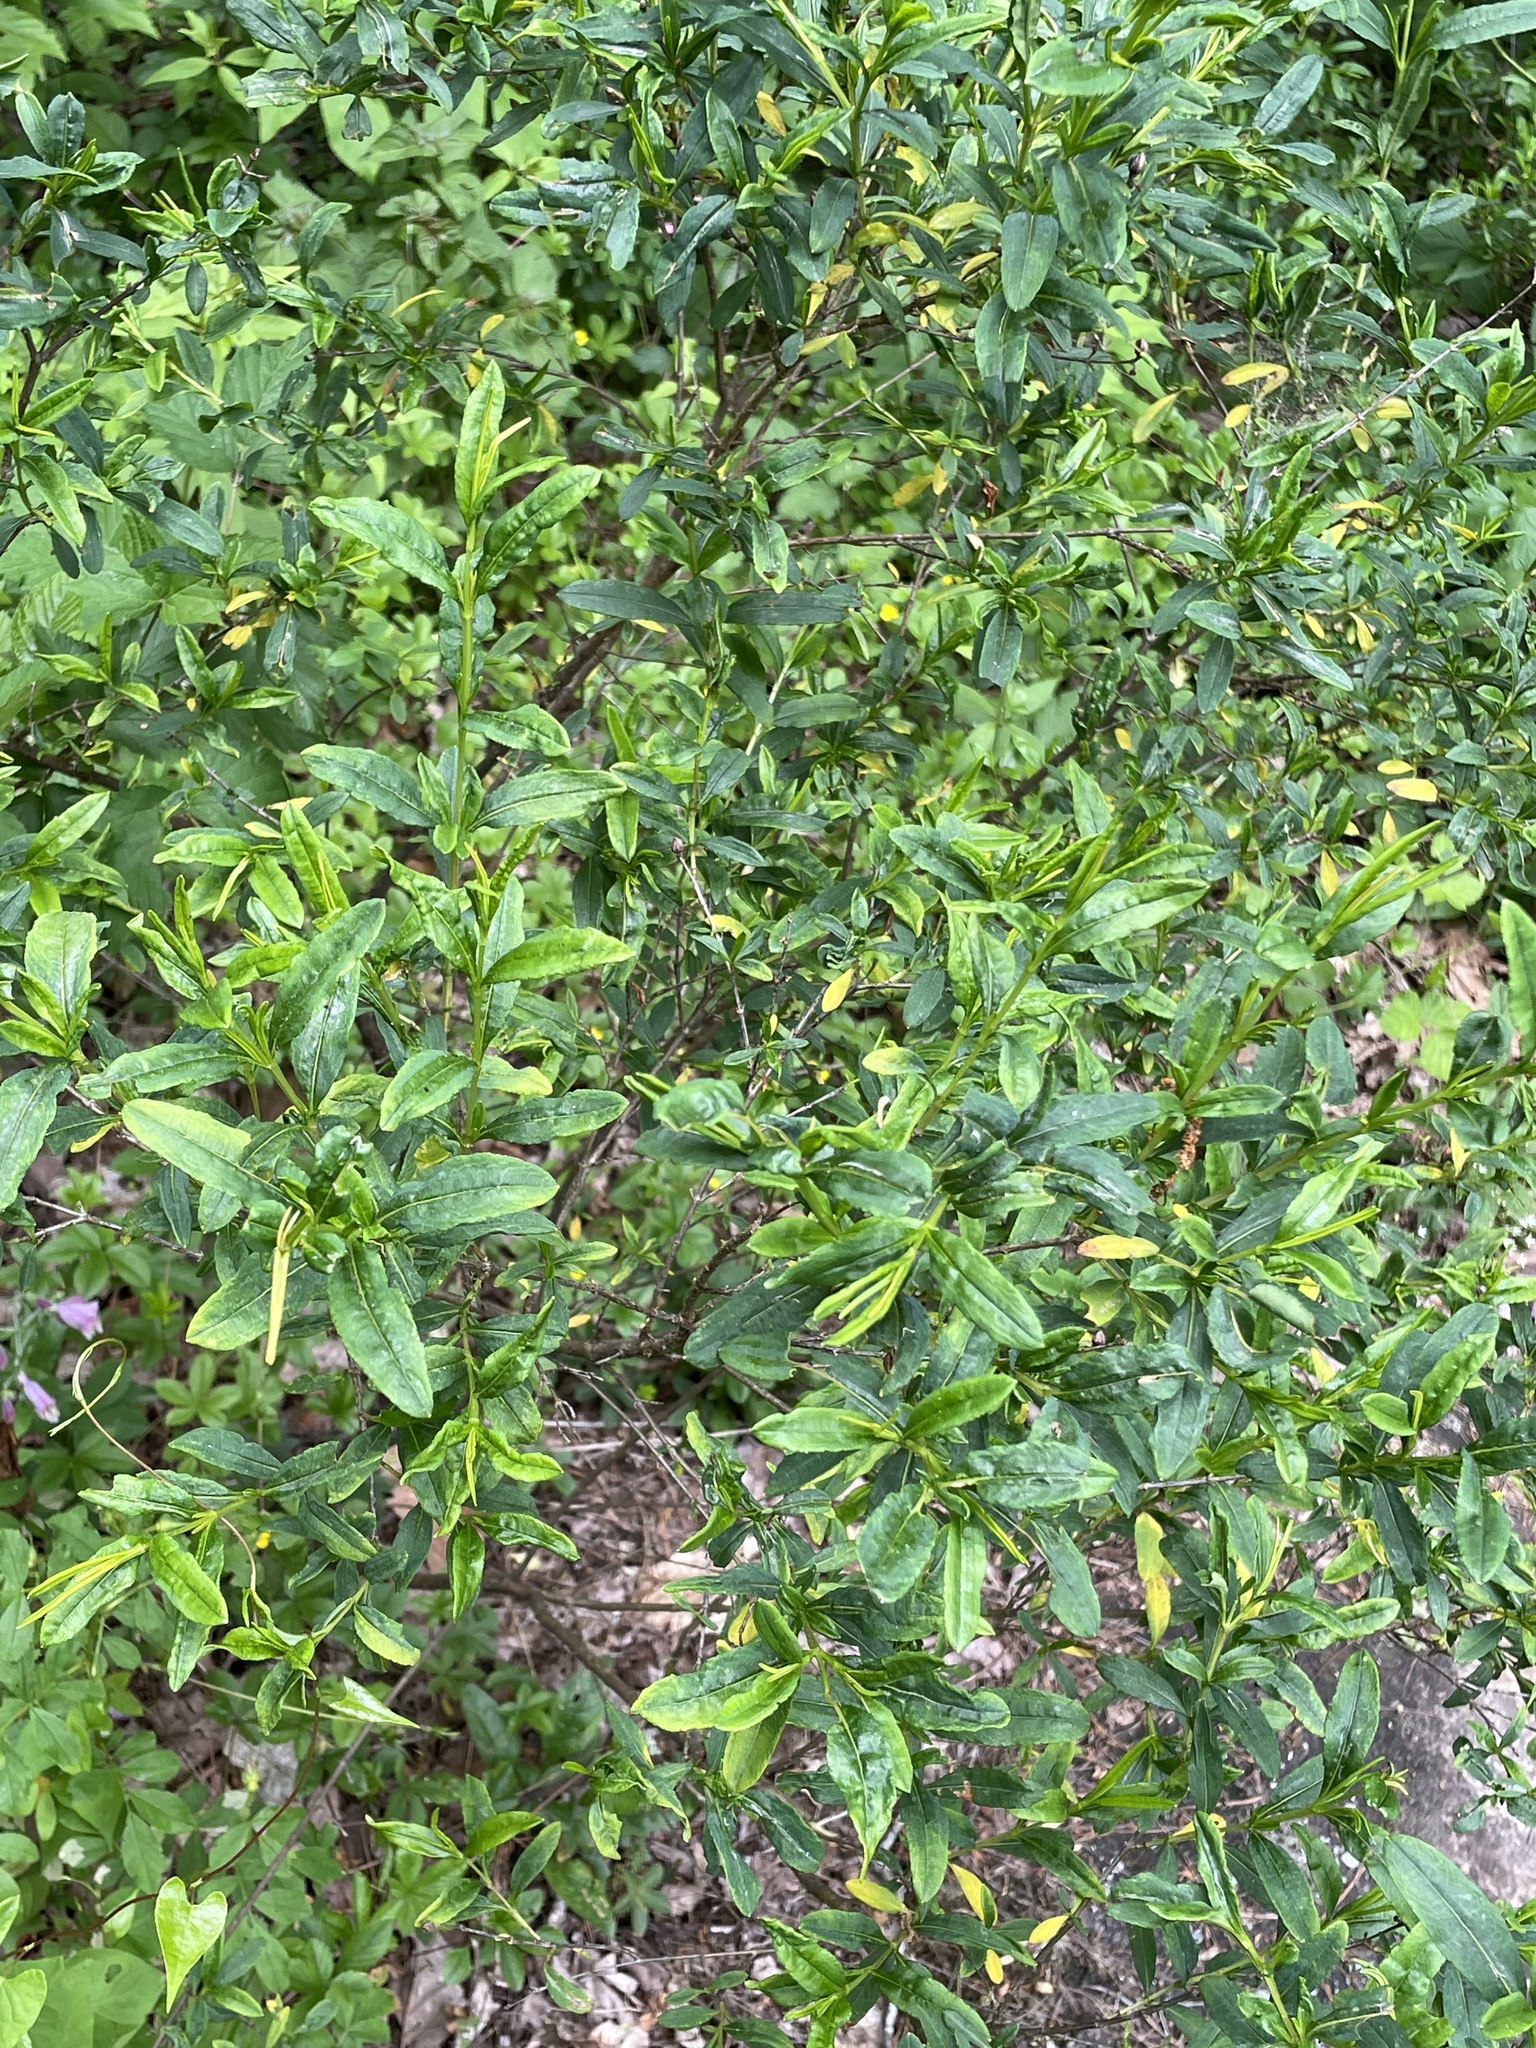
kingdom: Plantae
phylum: Tracheophyta
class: Magnoliopsida
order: Malpighiales
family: Hypericaceae
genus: Hypericum
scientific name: Hypericum prolificum
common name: Shrubby st. john's-wort
